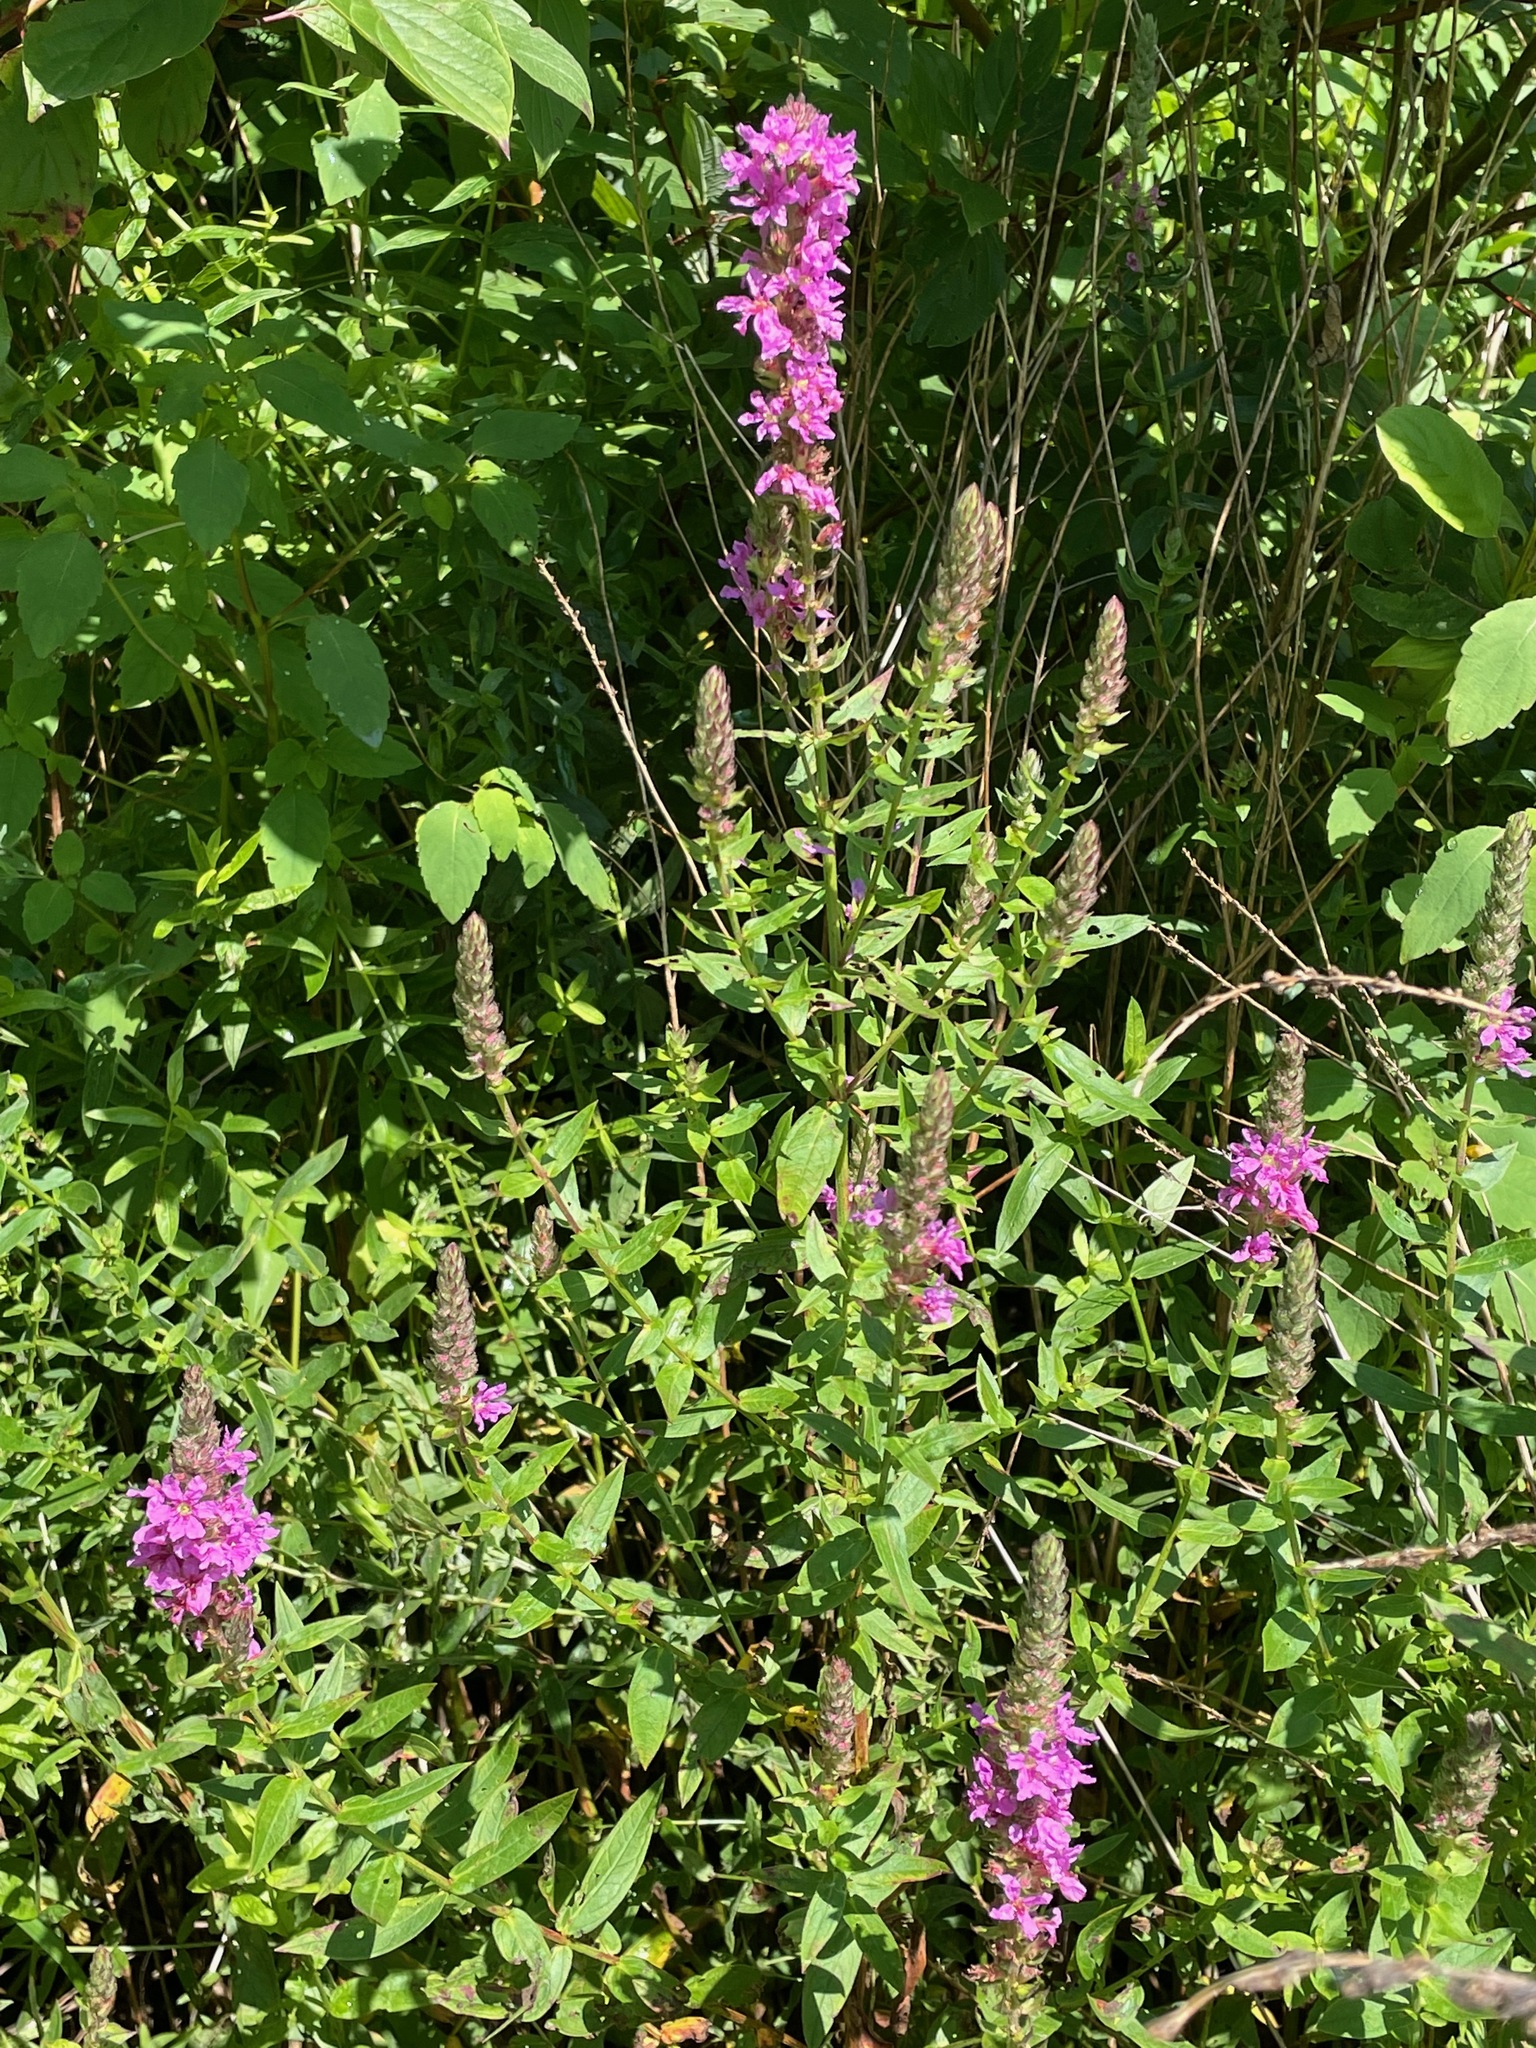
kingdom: Plantae
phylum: Tracheophyta
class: Magnoliopsida
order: Myrtales
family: Lythraceae
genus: Lythrum
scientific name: Lythrum salicaria
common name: Purple loosestrife
